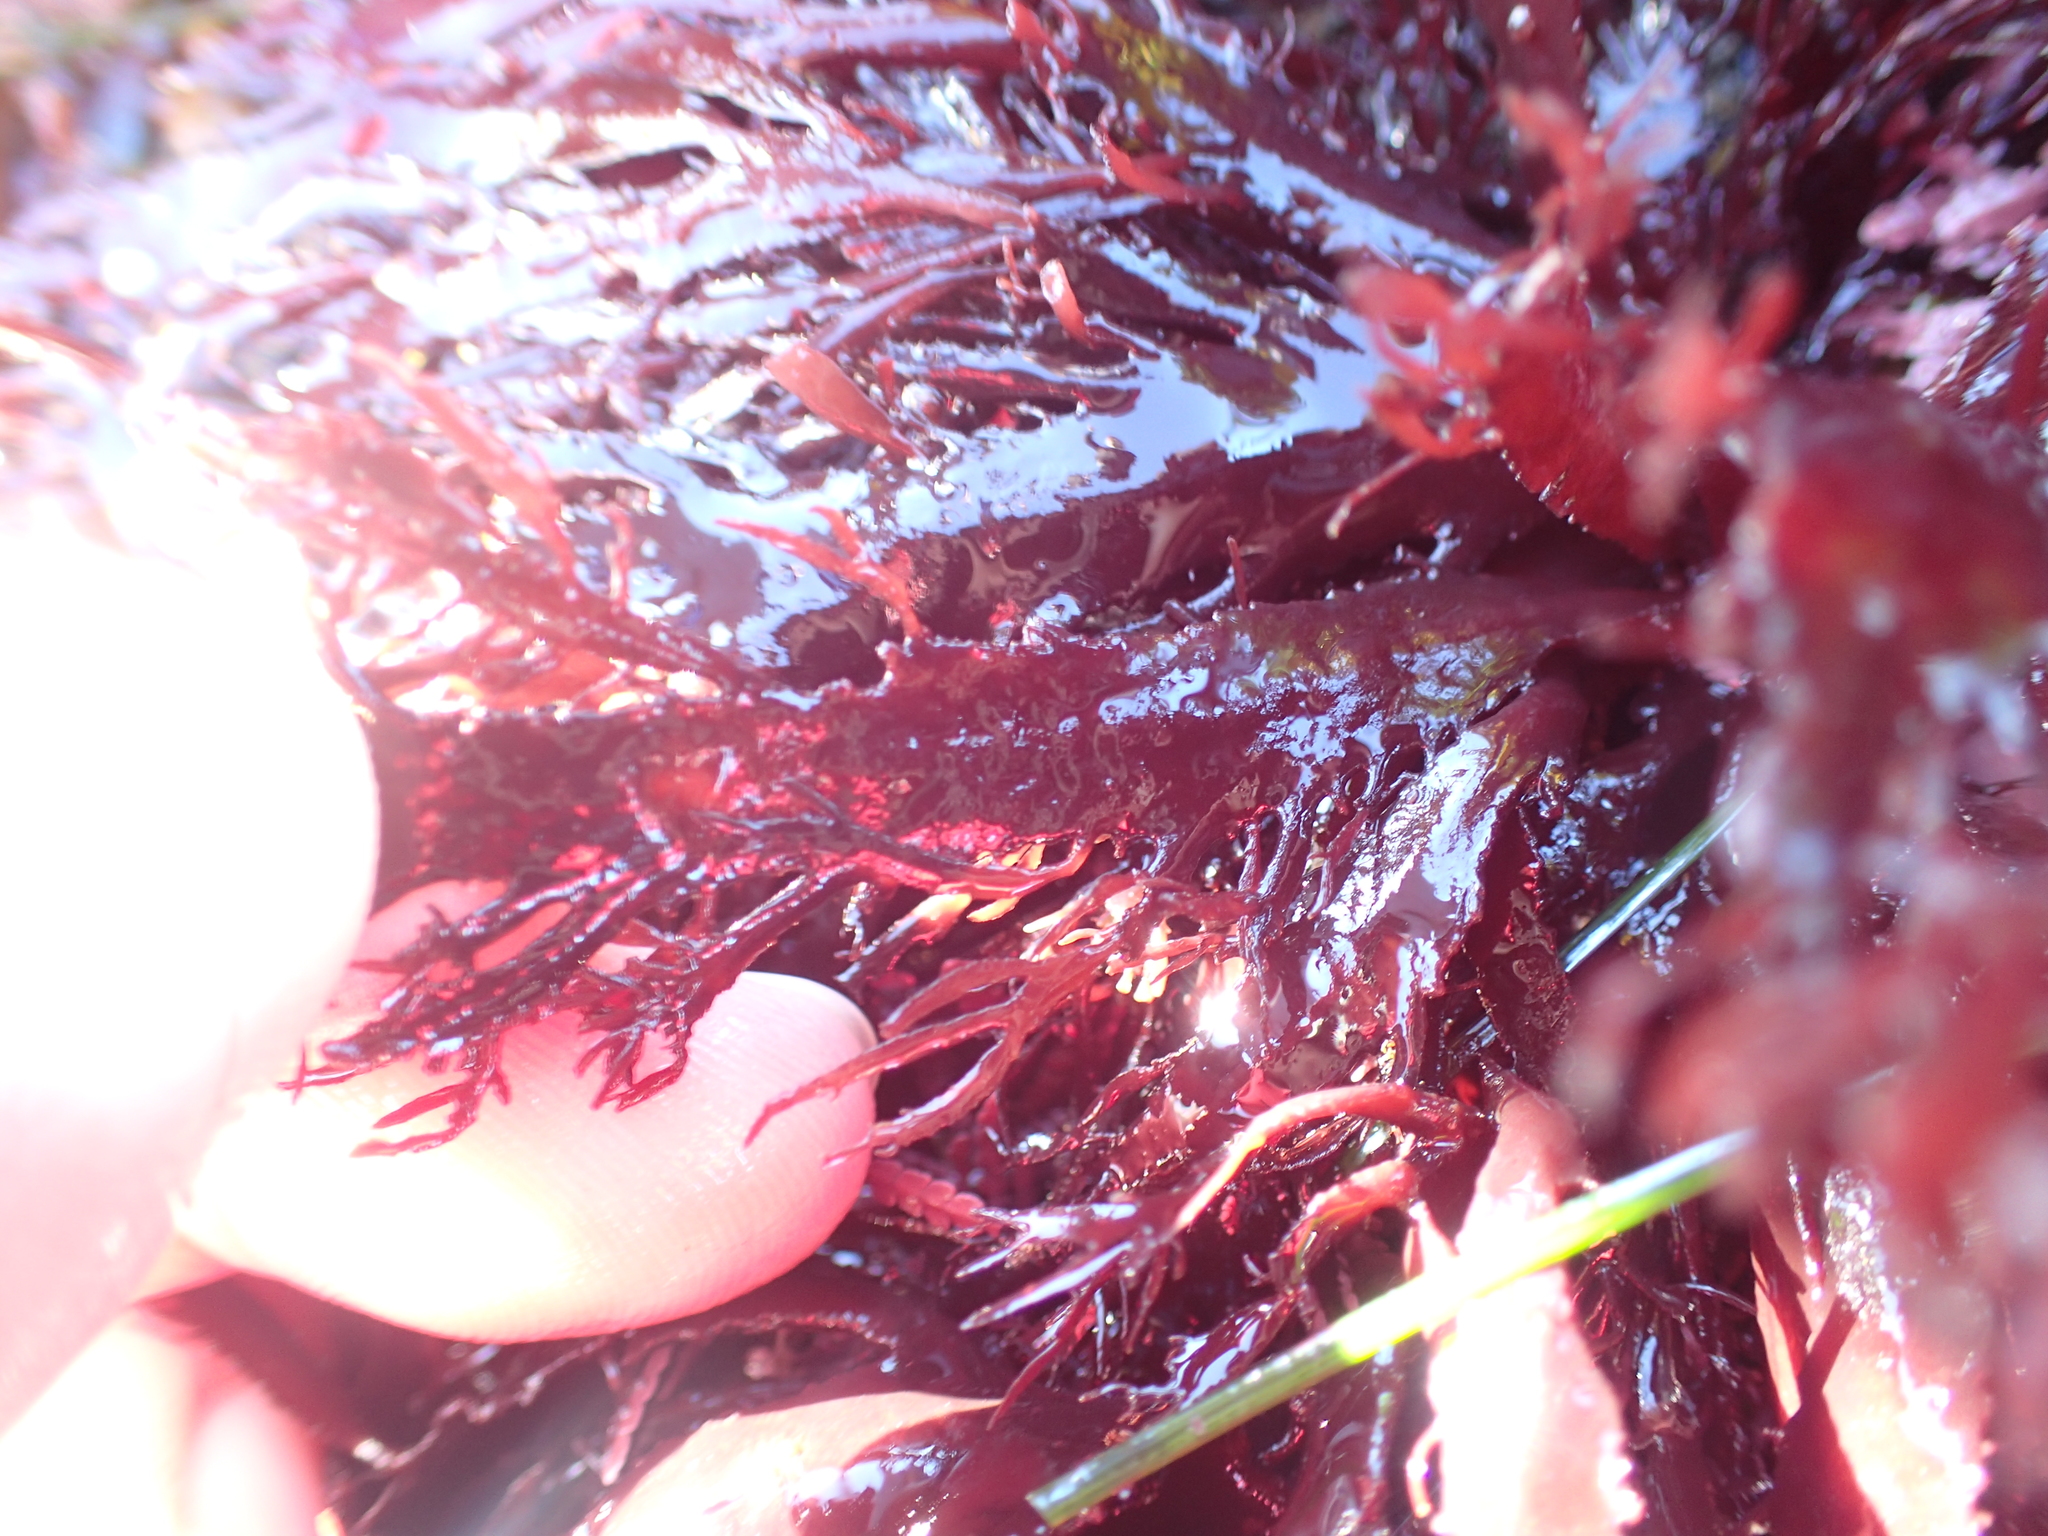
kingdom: Plantae
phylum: Rhodophyta
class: Florideophyceae
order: Gigartinales
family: Dumontiaceae
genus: Farlowia
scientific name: Farlowia compressa
